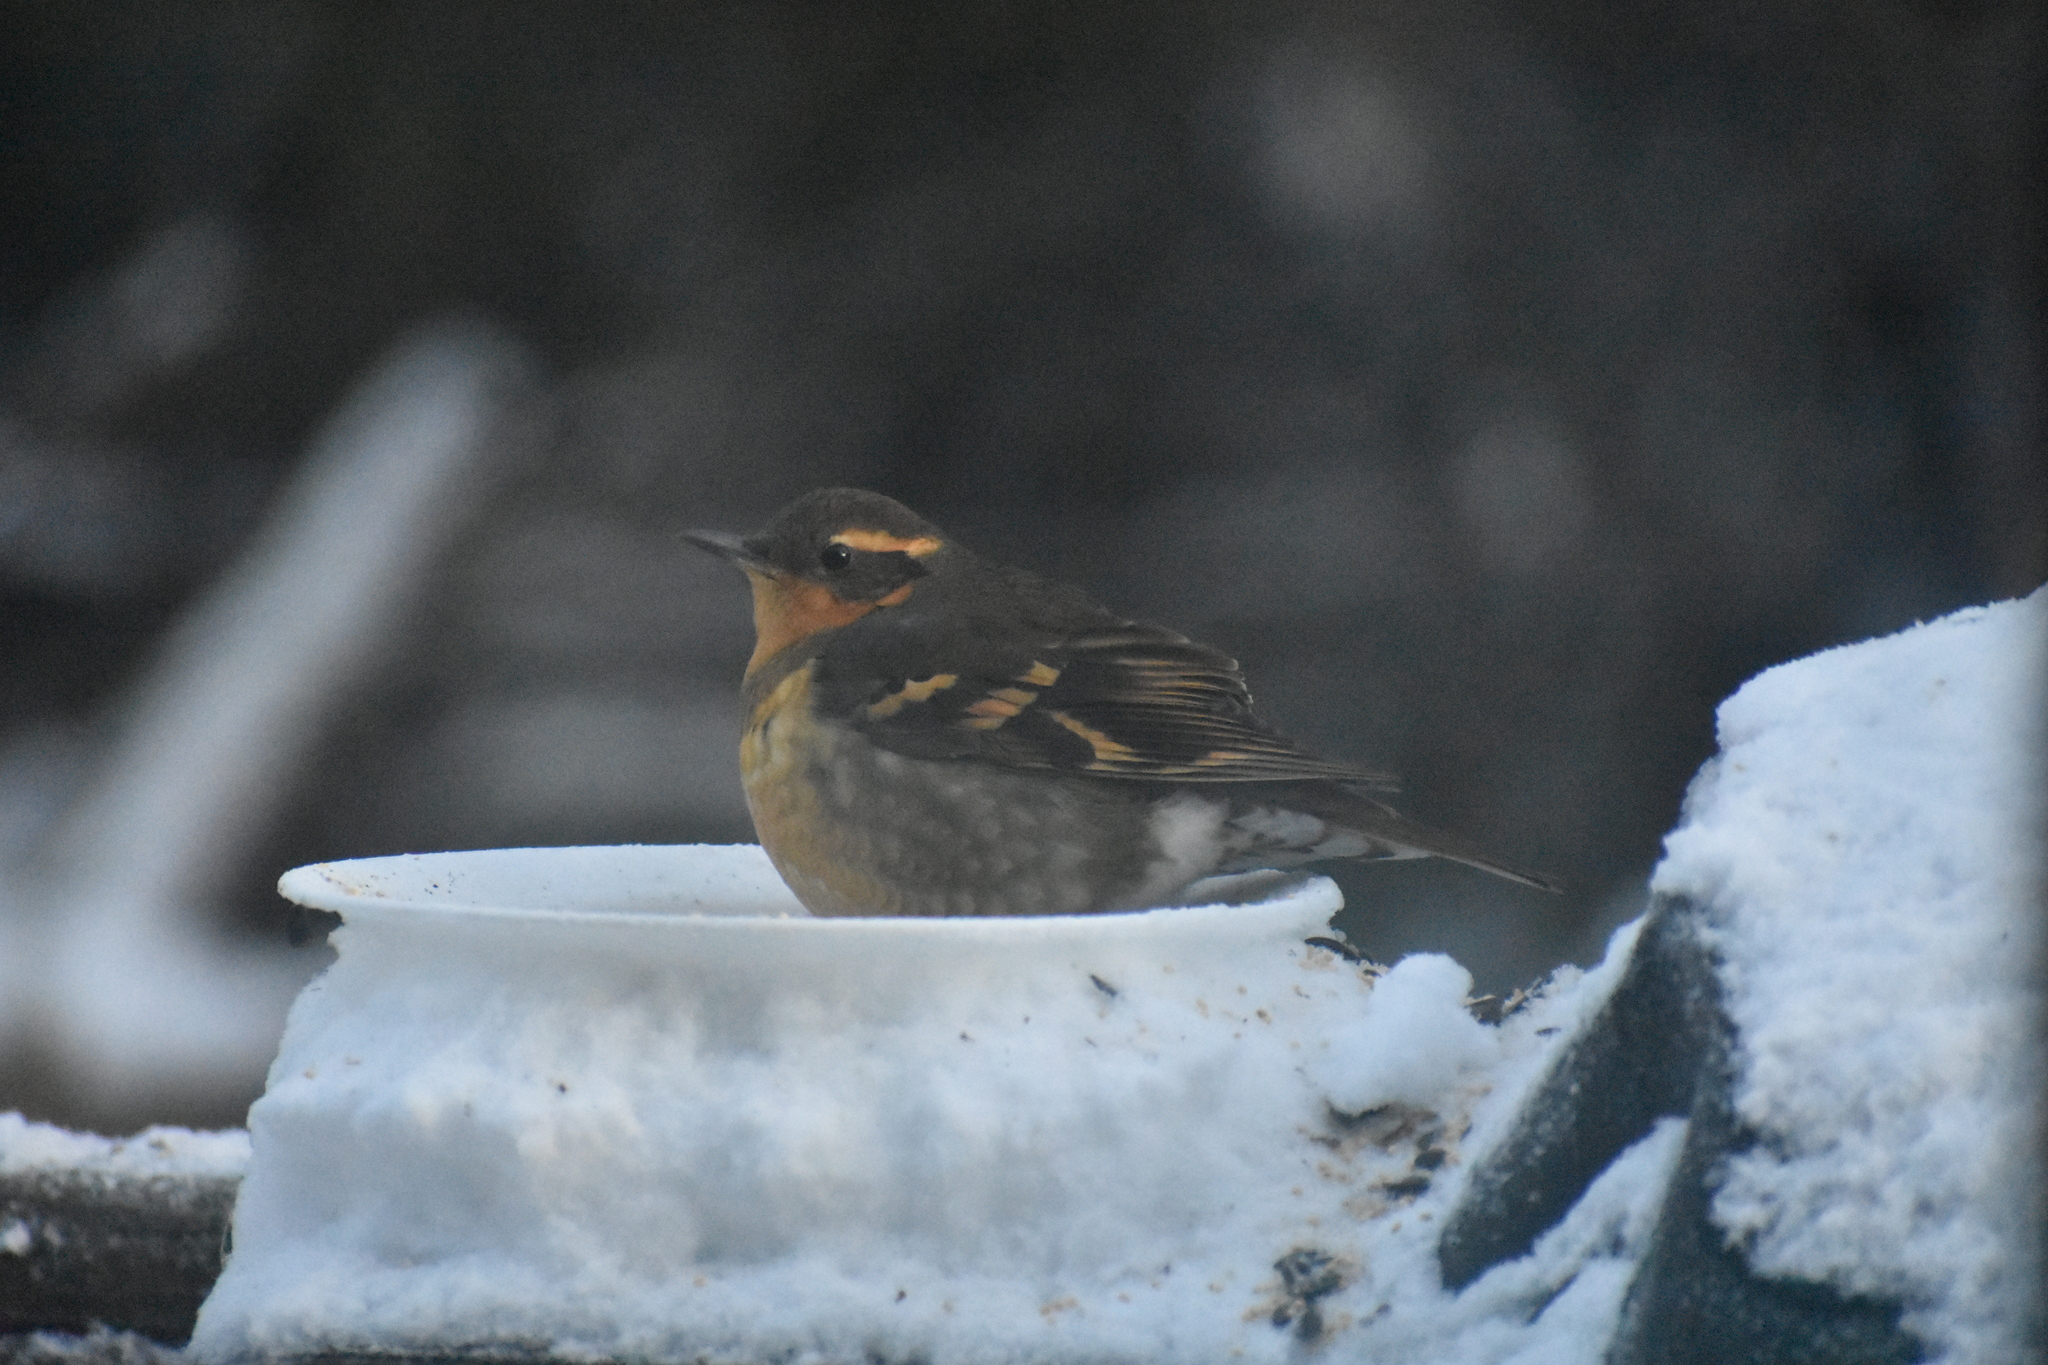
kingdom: Animalia
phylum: Chordata
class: Aves
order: Passeriformes
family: Turdidae
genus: Ixoreus
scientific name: Ixoreus naevius
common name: Varied thrush
